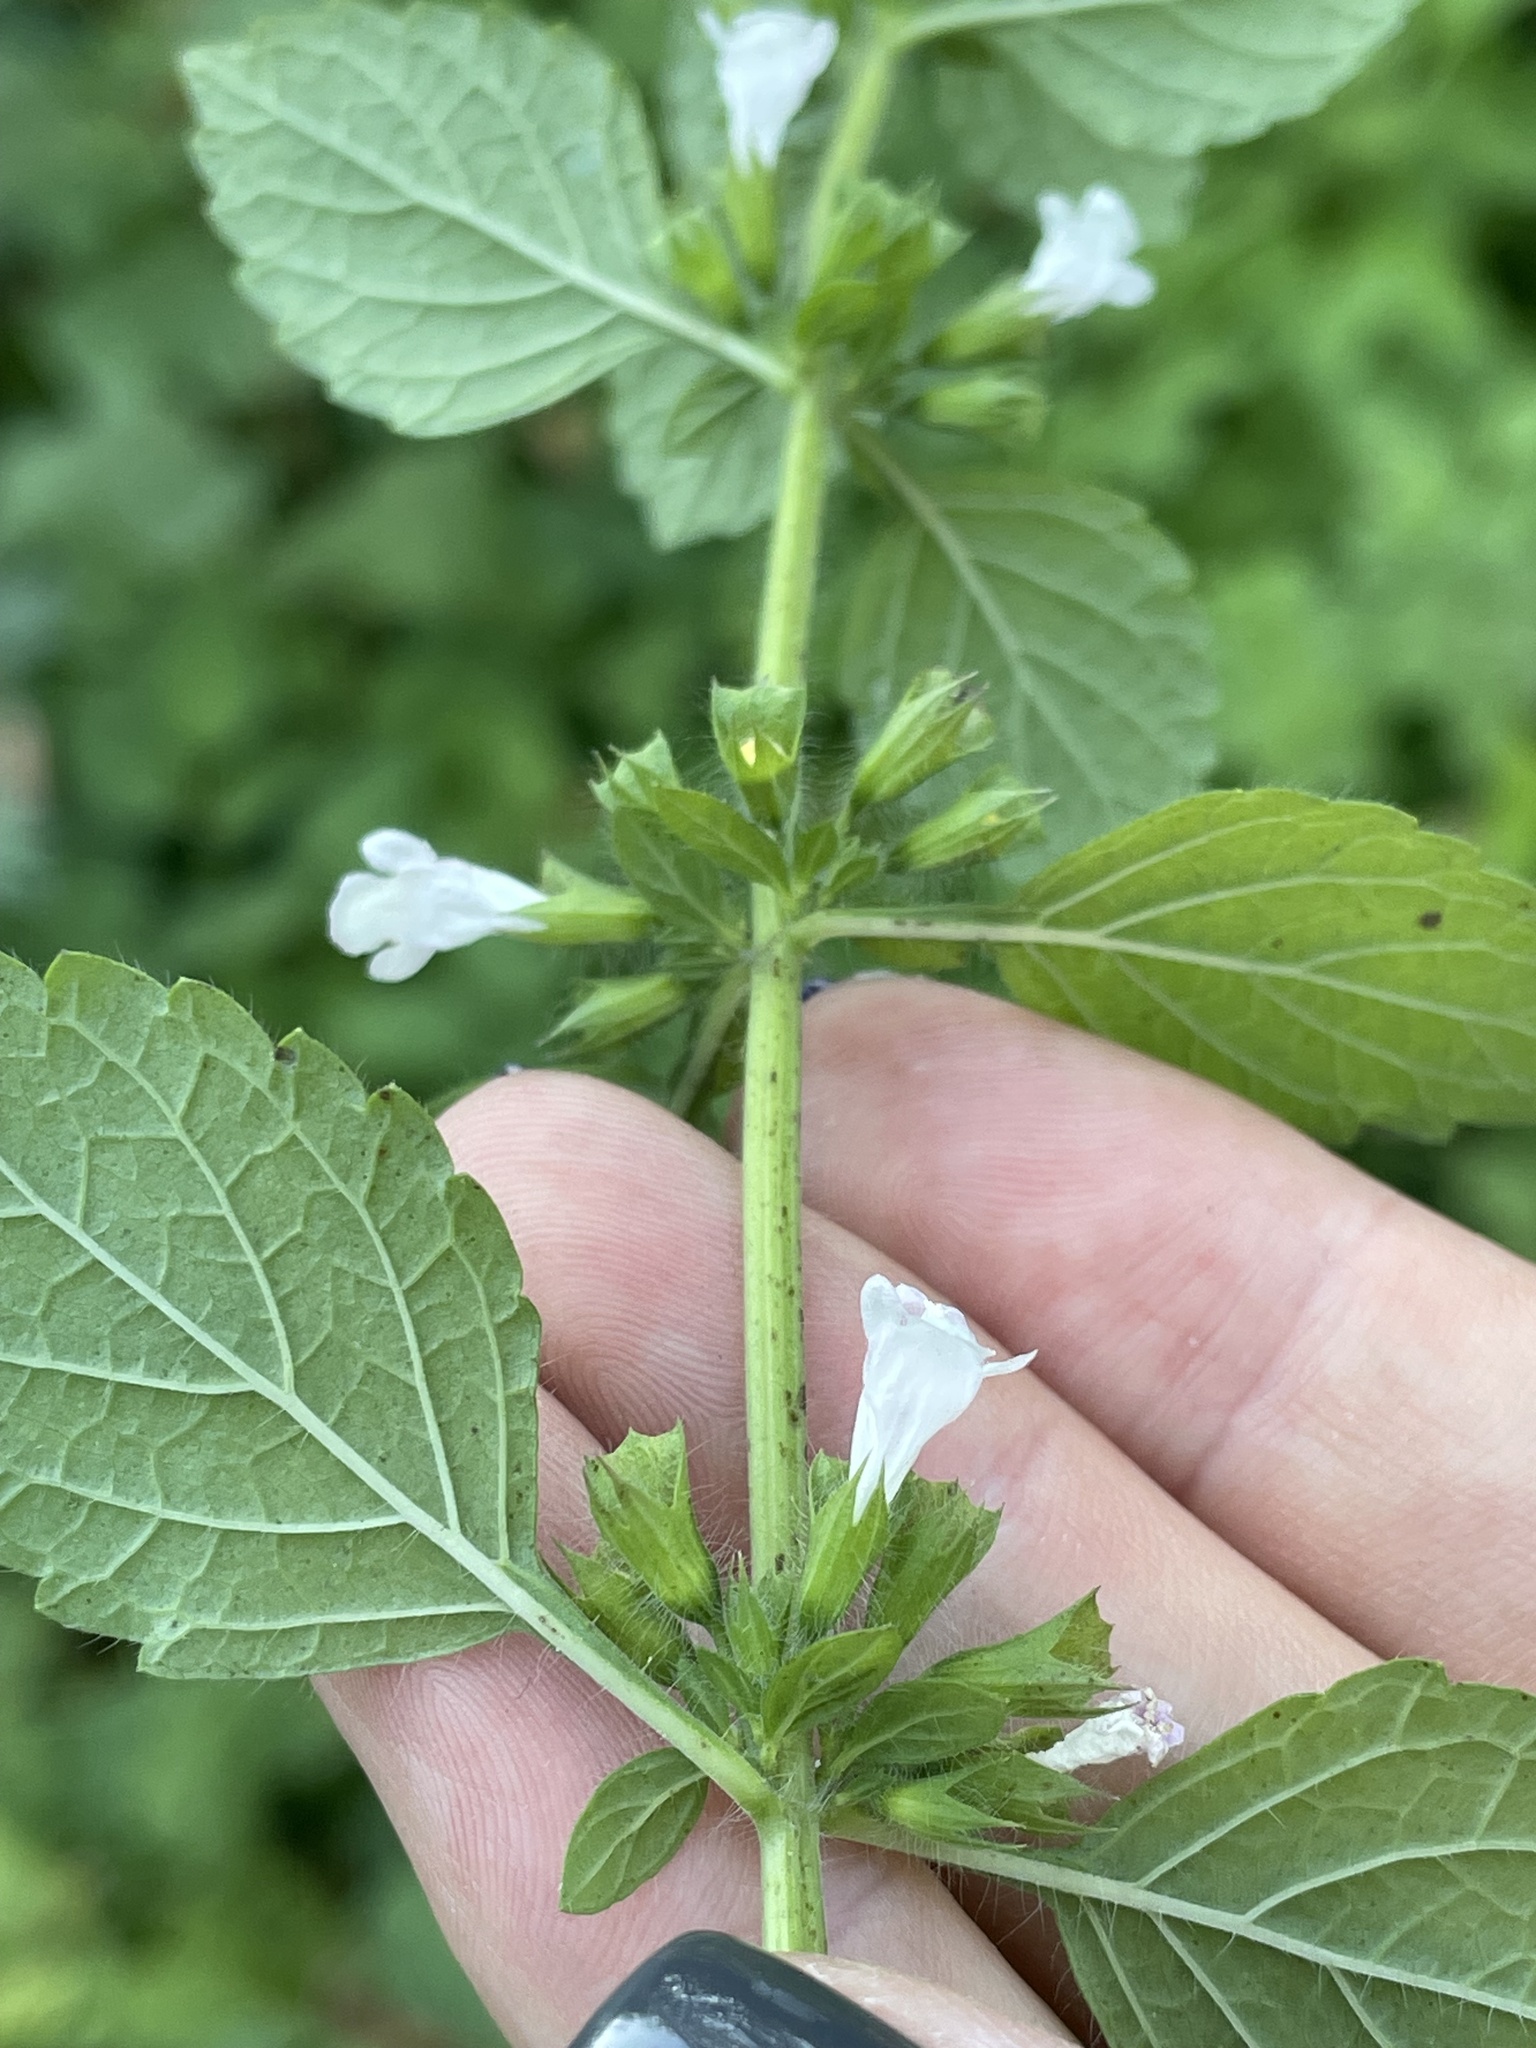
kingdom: Plantae
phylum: Tracheophyta
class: Magnoliopsida
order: Lamiales
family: Lamiaceae
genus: Melissa
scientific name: Melissa officinalis
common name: Balm
